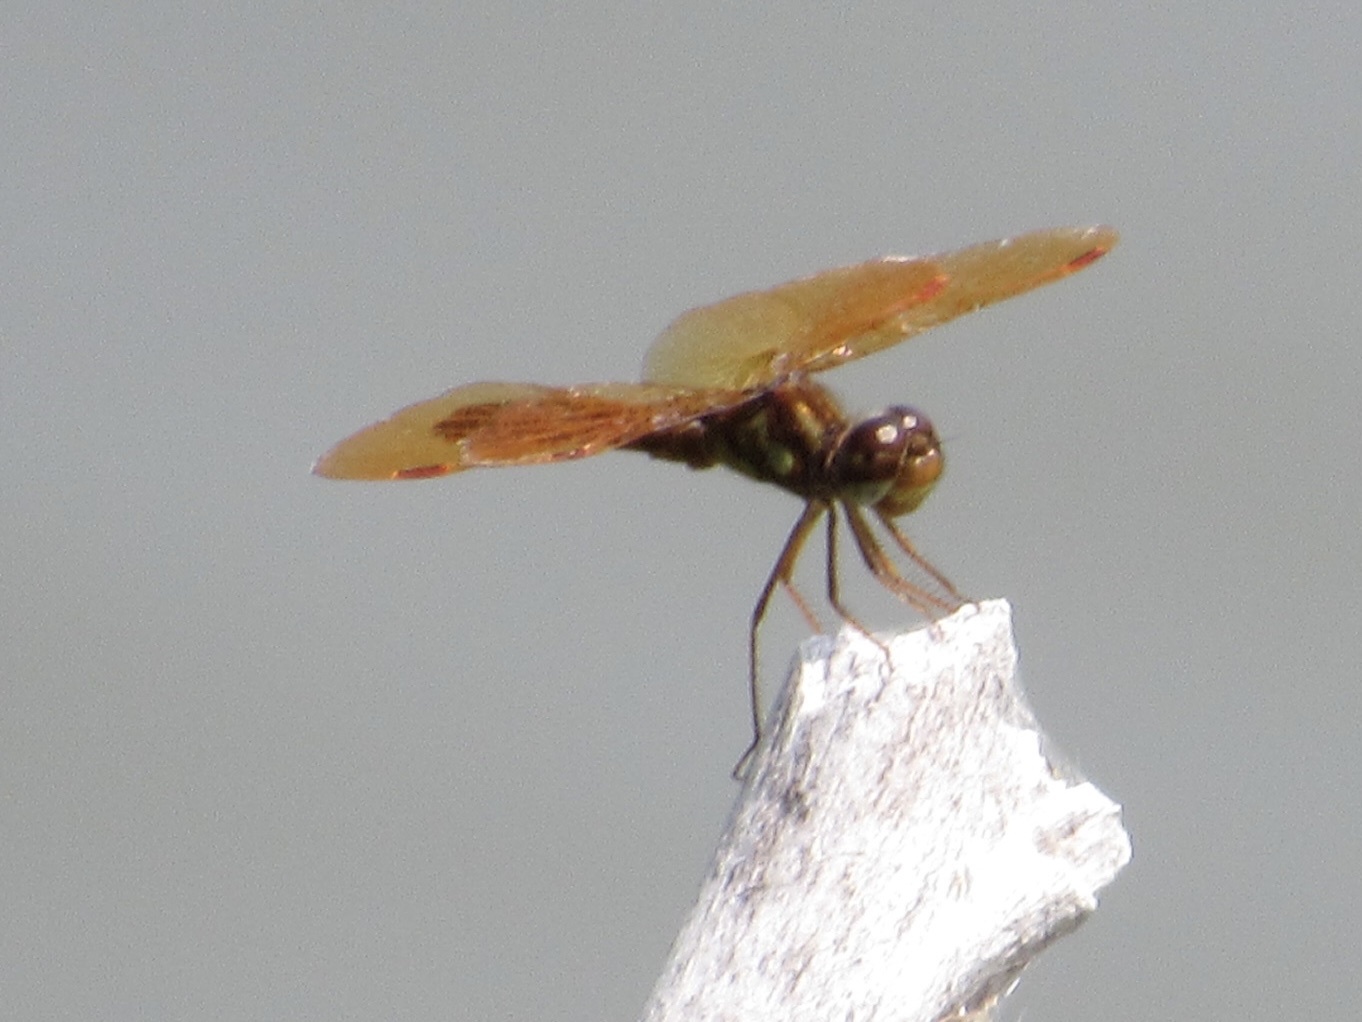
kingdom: Animalia
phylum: Arthropoda
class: Insecta
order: Odonata
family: Libellulidae
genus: Perithemis
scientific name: Perithemis tenera
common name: Eastern amberwing
